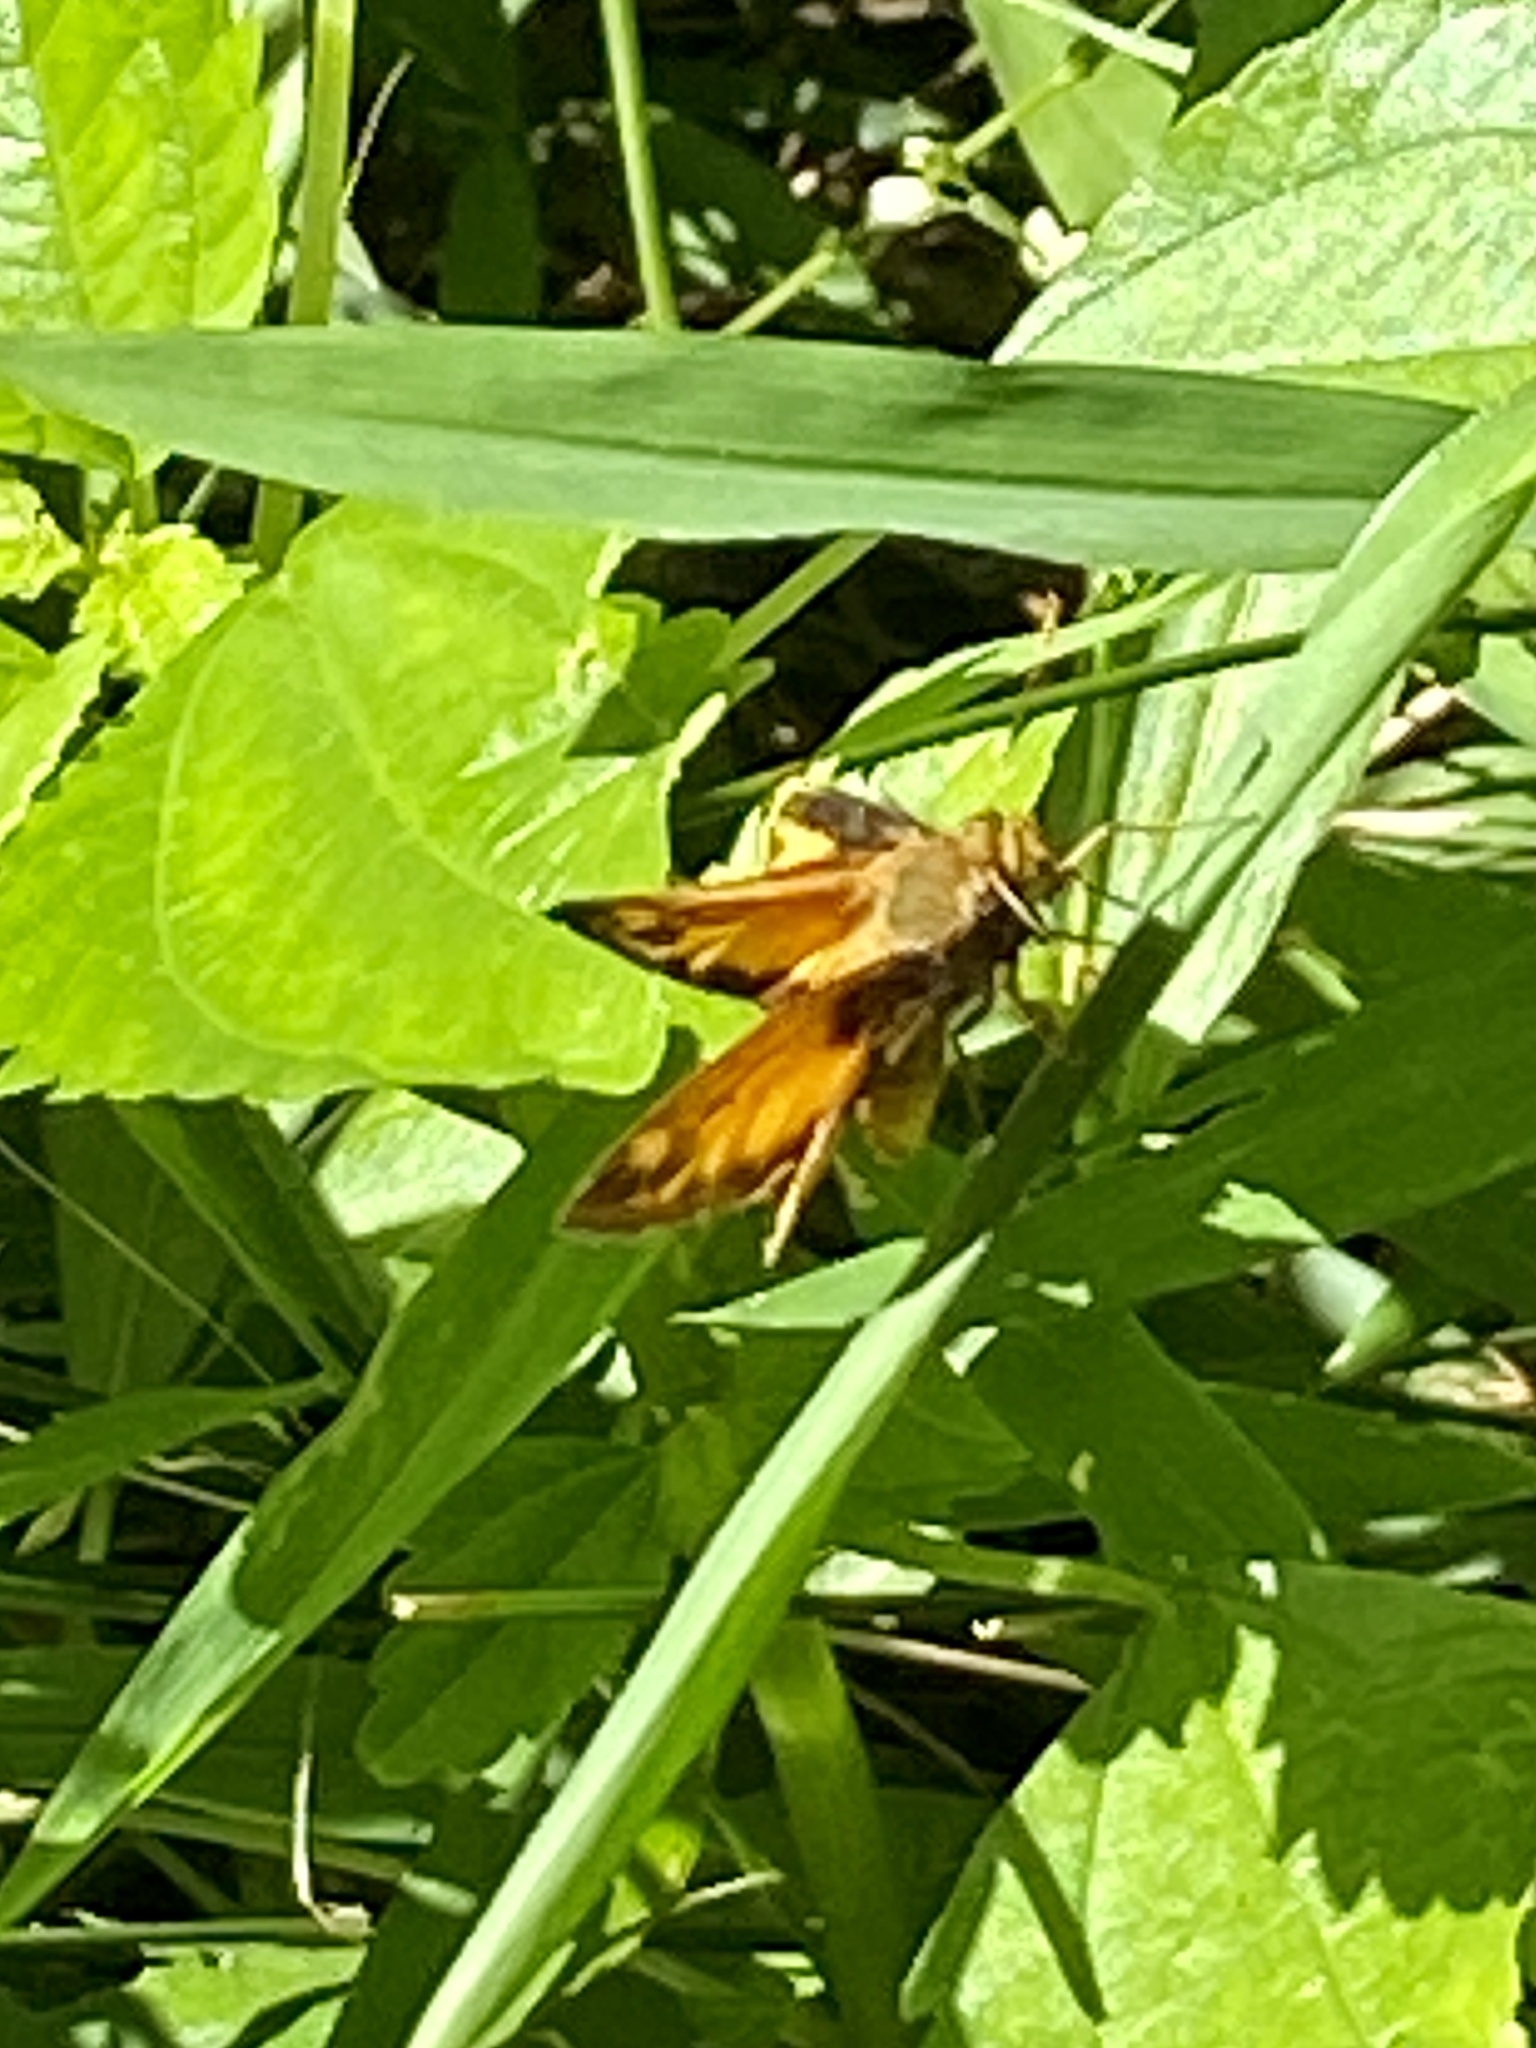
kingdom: Animalia
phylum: Arthropoda
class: Insecta
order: Lepidoptera
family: Hesperiidae
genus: Lon
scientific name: Lon zabulon
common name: Zabulon skipper
